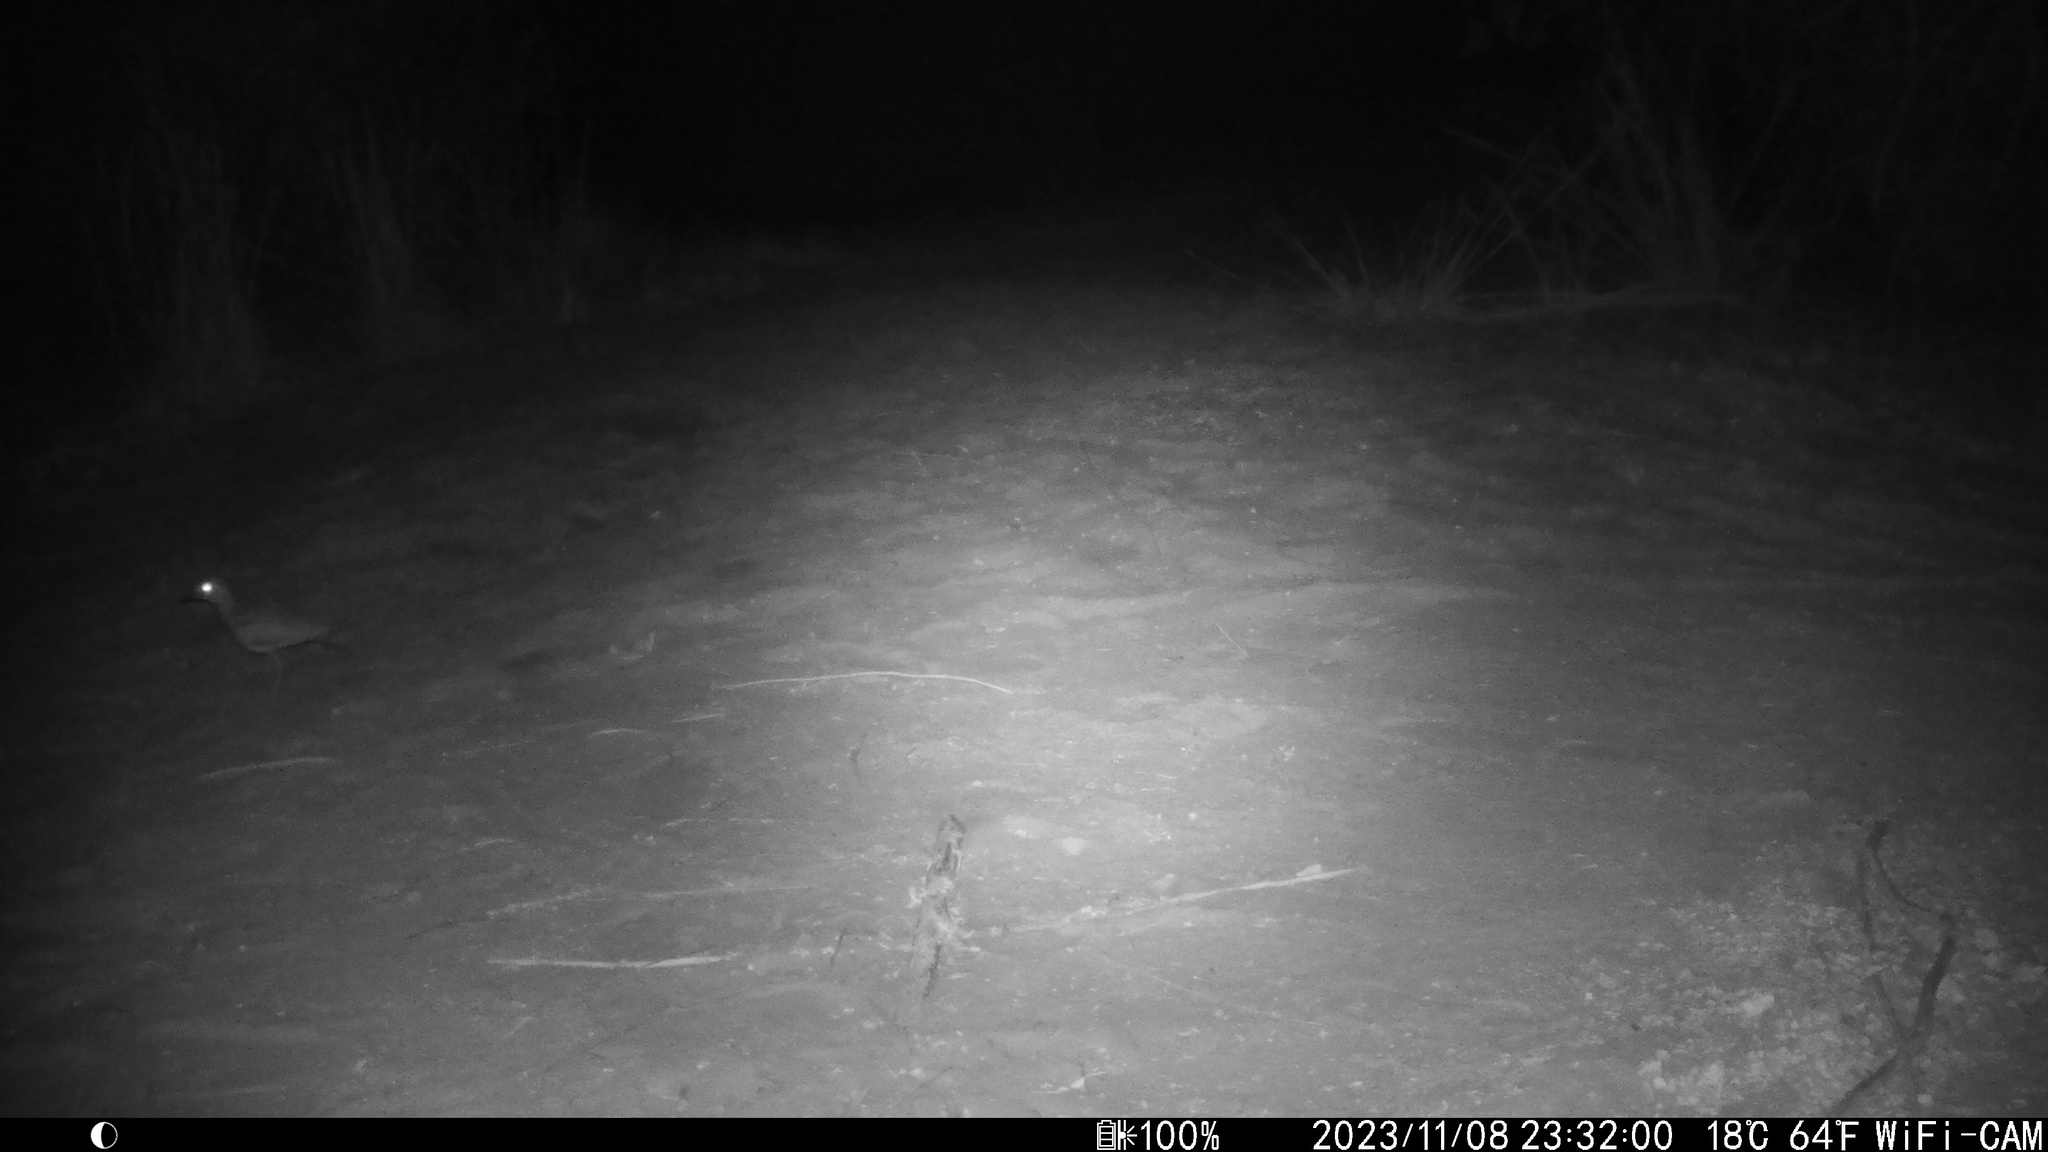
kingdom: Animalia
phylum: Chordata
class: Aves
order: Charadriiformes
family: Burhinidae
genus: Burhinus
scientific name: Burhinus vermiculatus
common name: Water thick-knee
